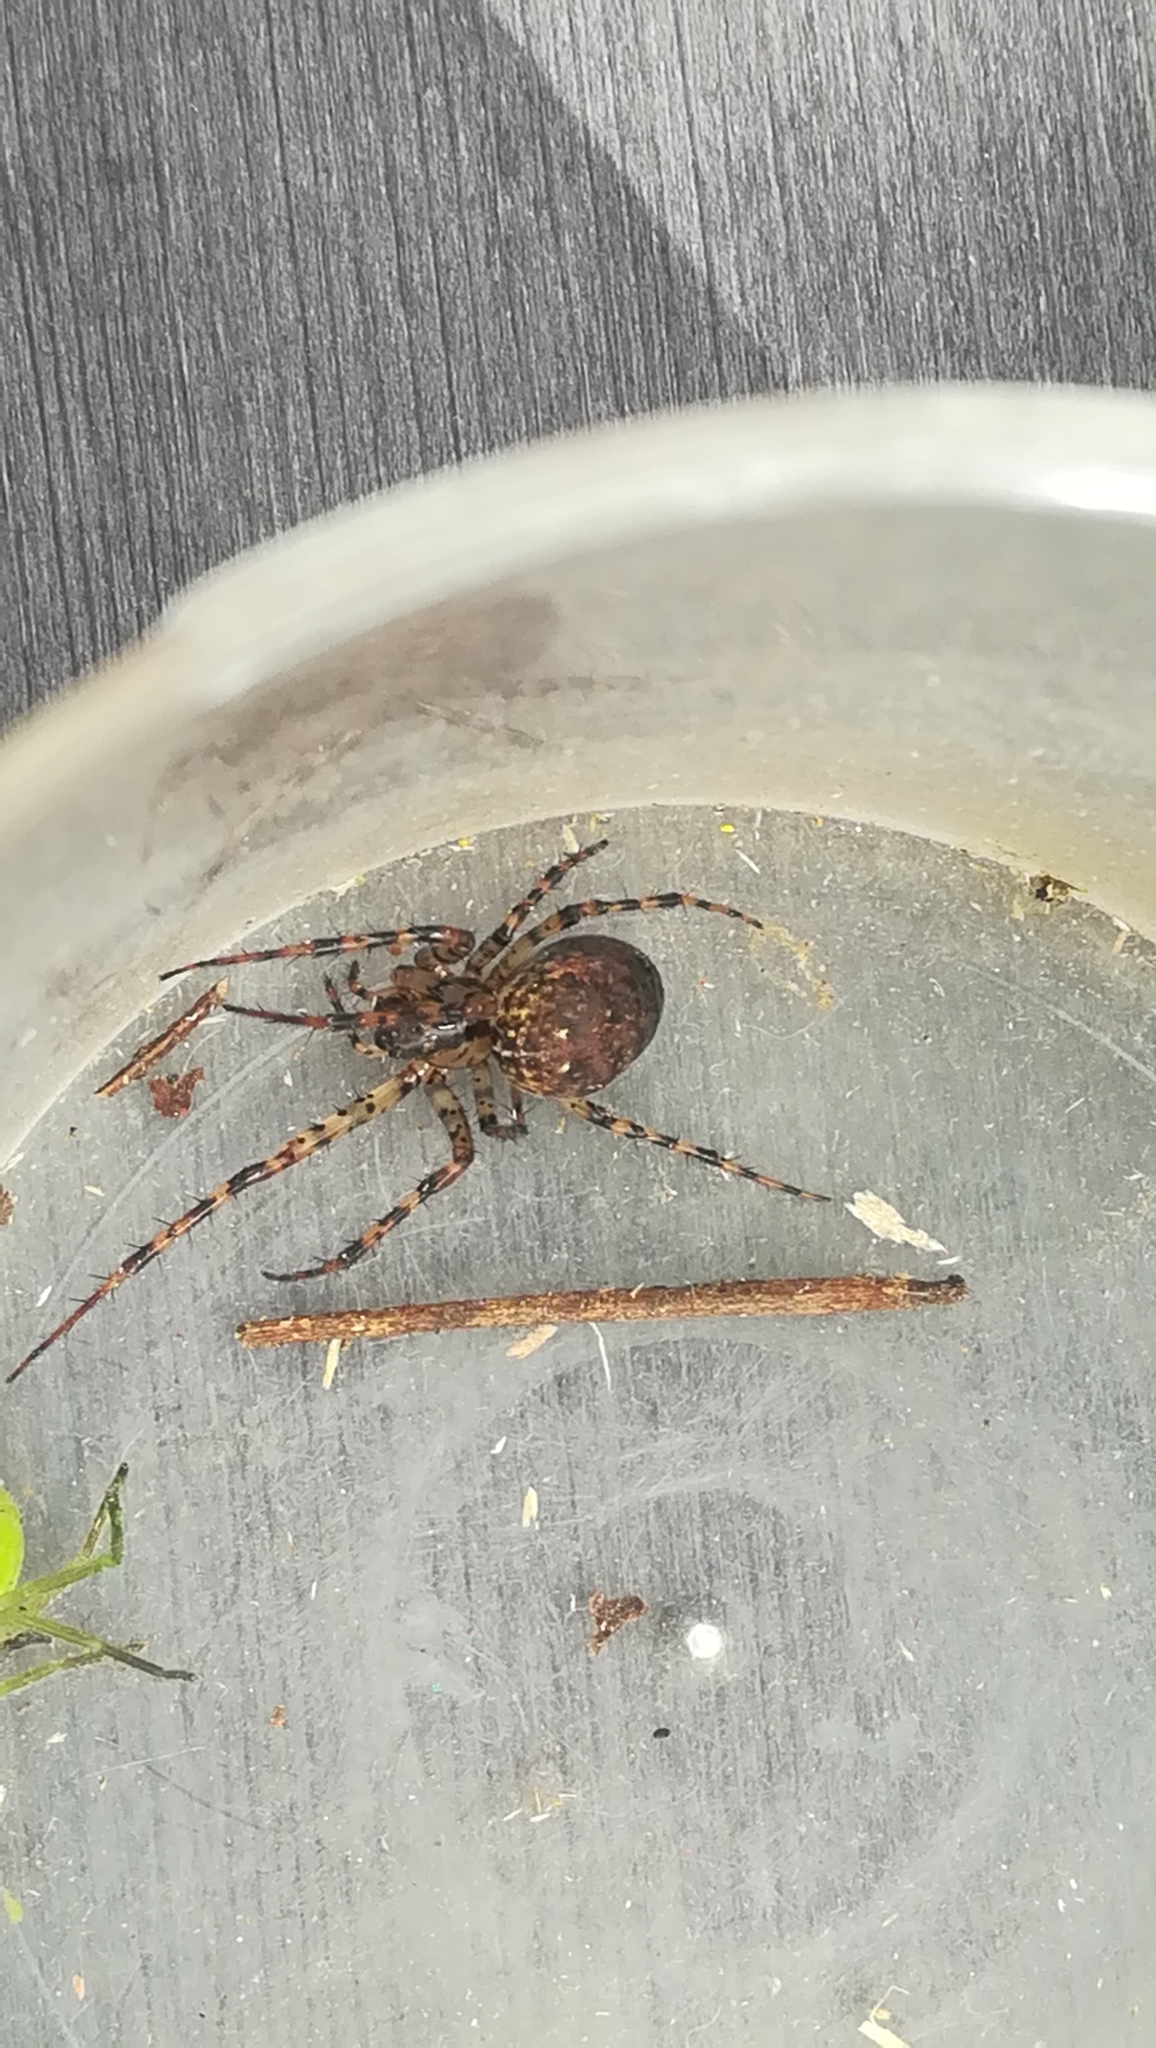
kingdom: Animalia
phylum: Arthropoda
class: Arachnida
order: Araneae
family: Tetragnathidae
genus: Metellina
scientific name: Metellina merianae
